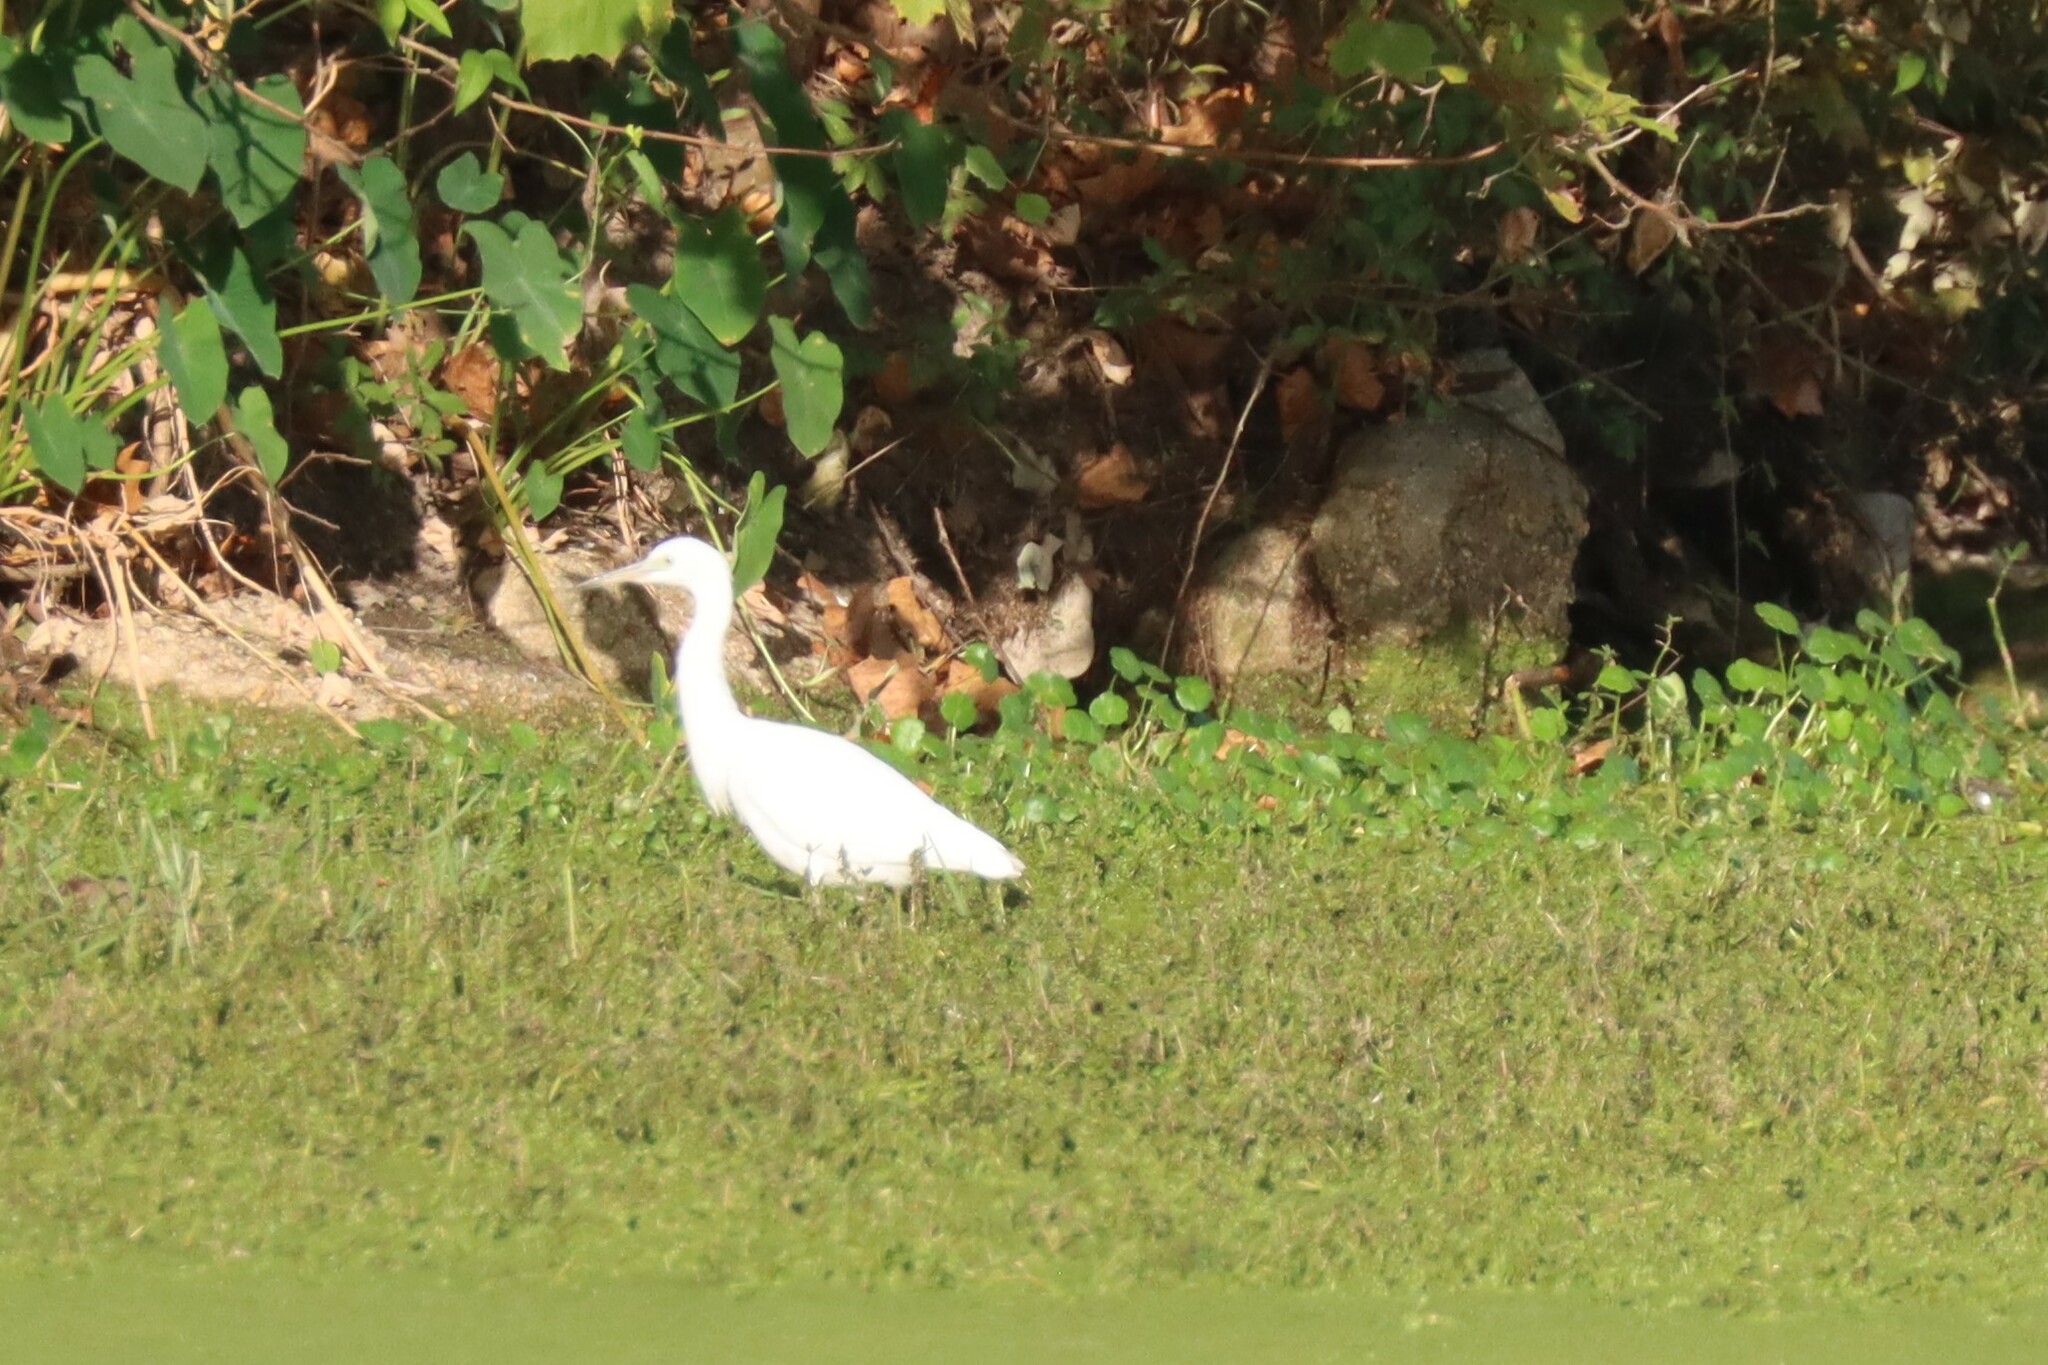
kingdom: Animalia
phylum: Chordata
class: Aves
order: Pelecaniformes
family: Ardeidae
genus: Egretta
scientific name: Egretta caerulea
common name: Little blue heron
